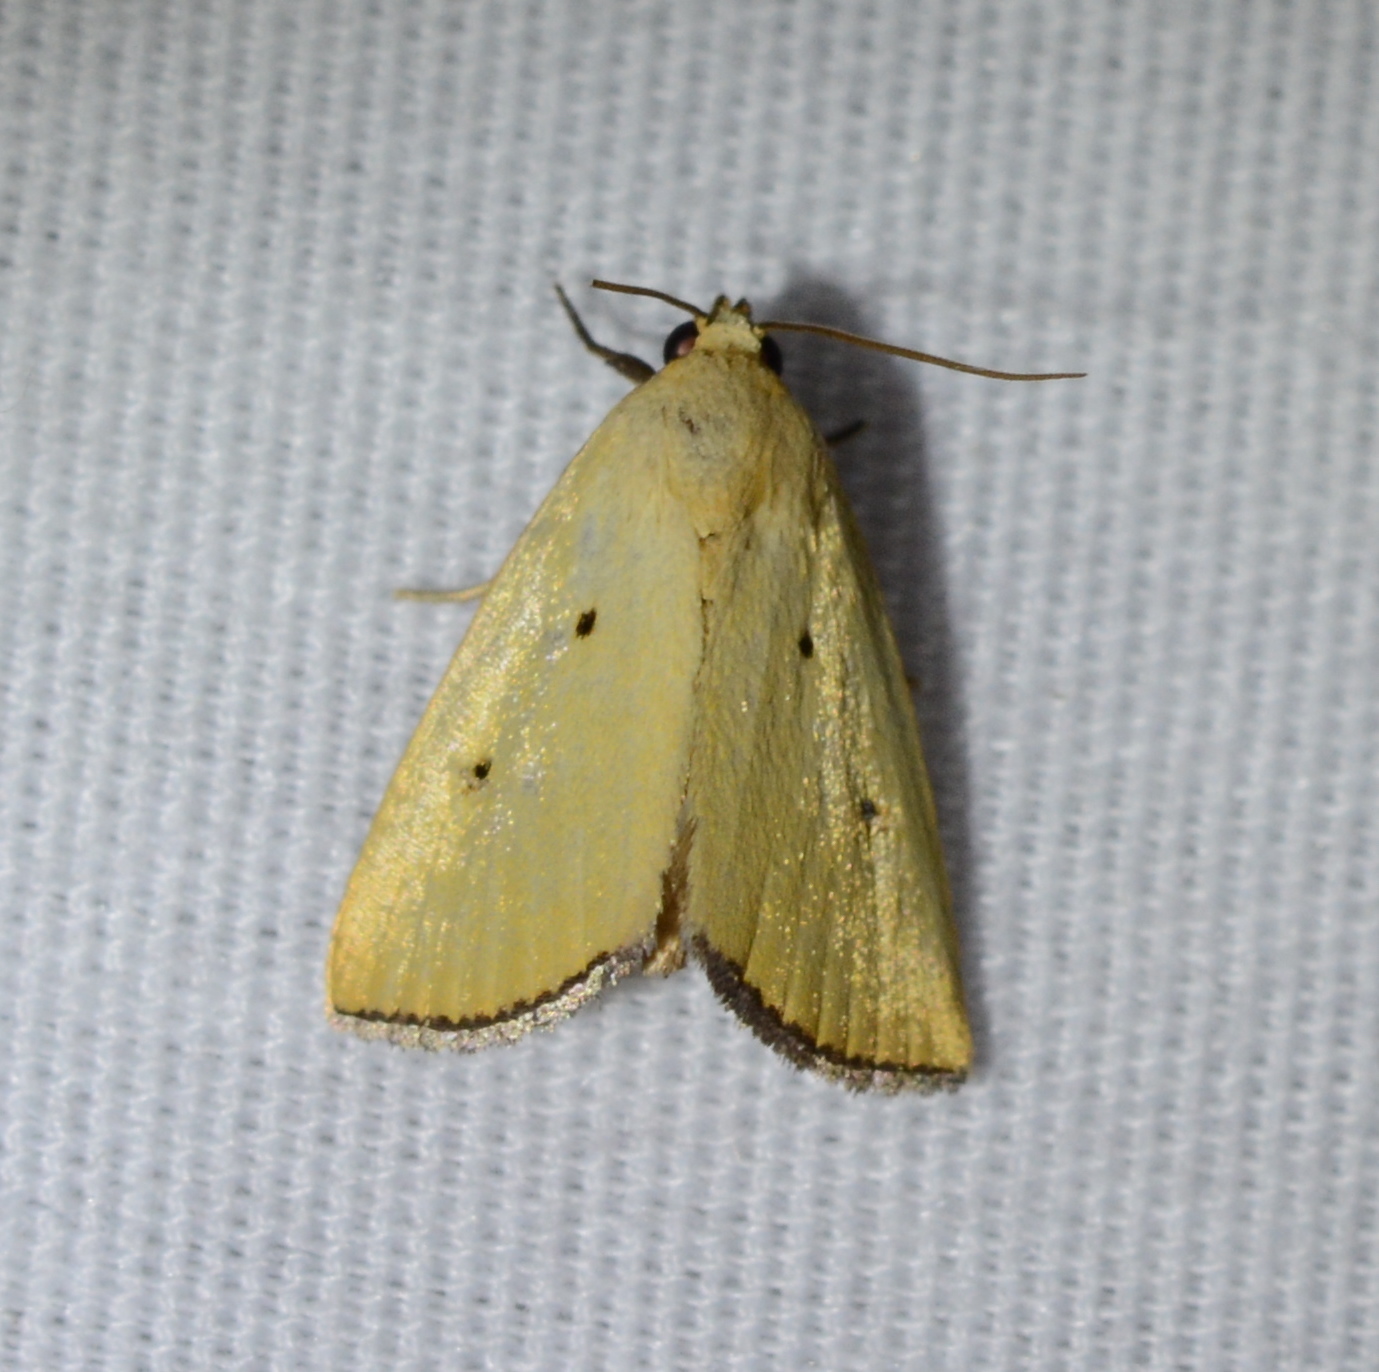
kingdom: Animalia
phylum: Arthropoda
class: Insecta
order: Lepidoptera
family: Noctuidae
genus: Marimatha
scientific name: Marimatha nigrofimbria
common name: Black-bordered lemon moth
